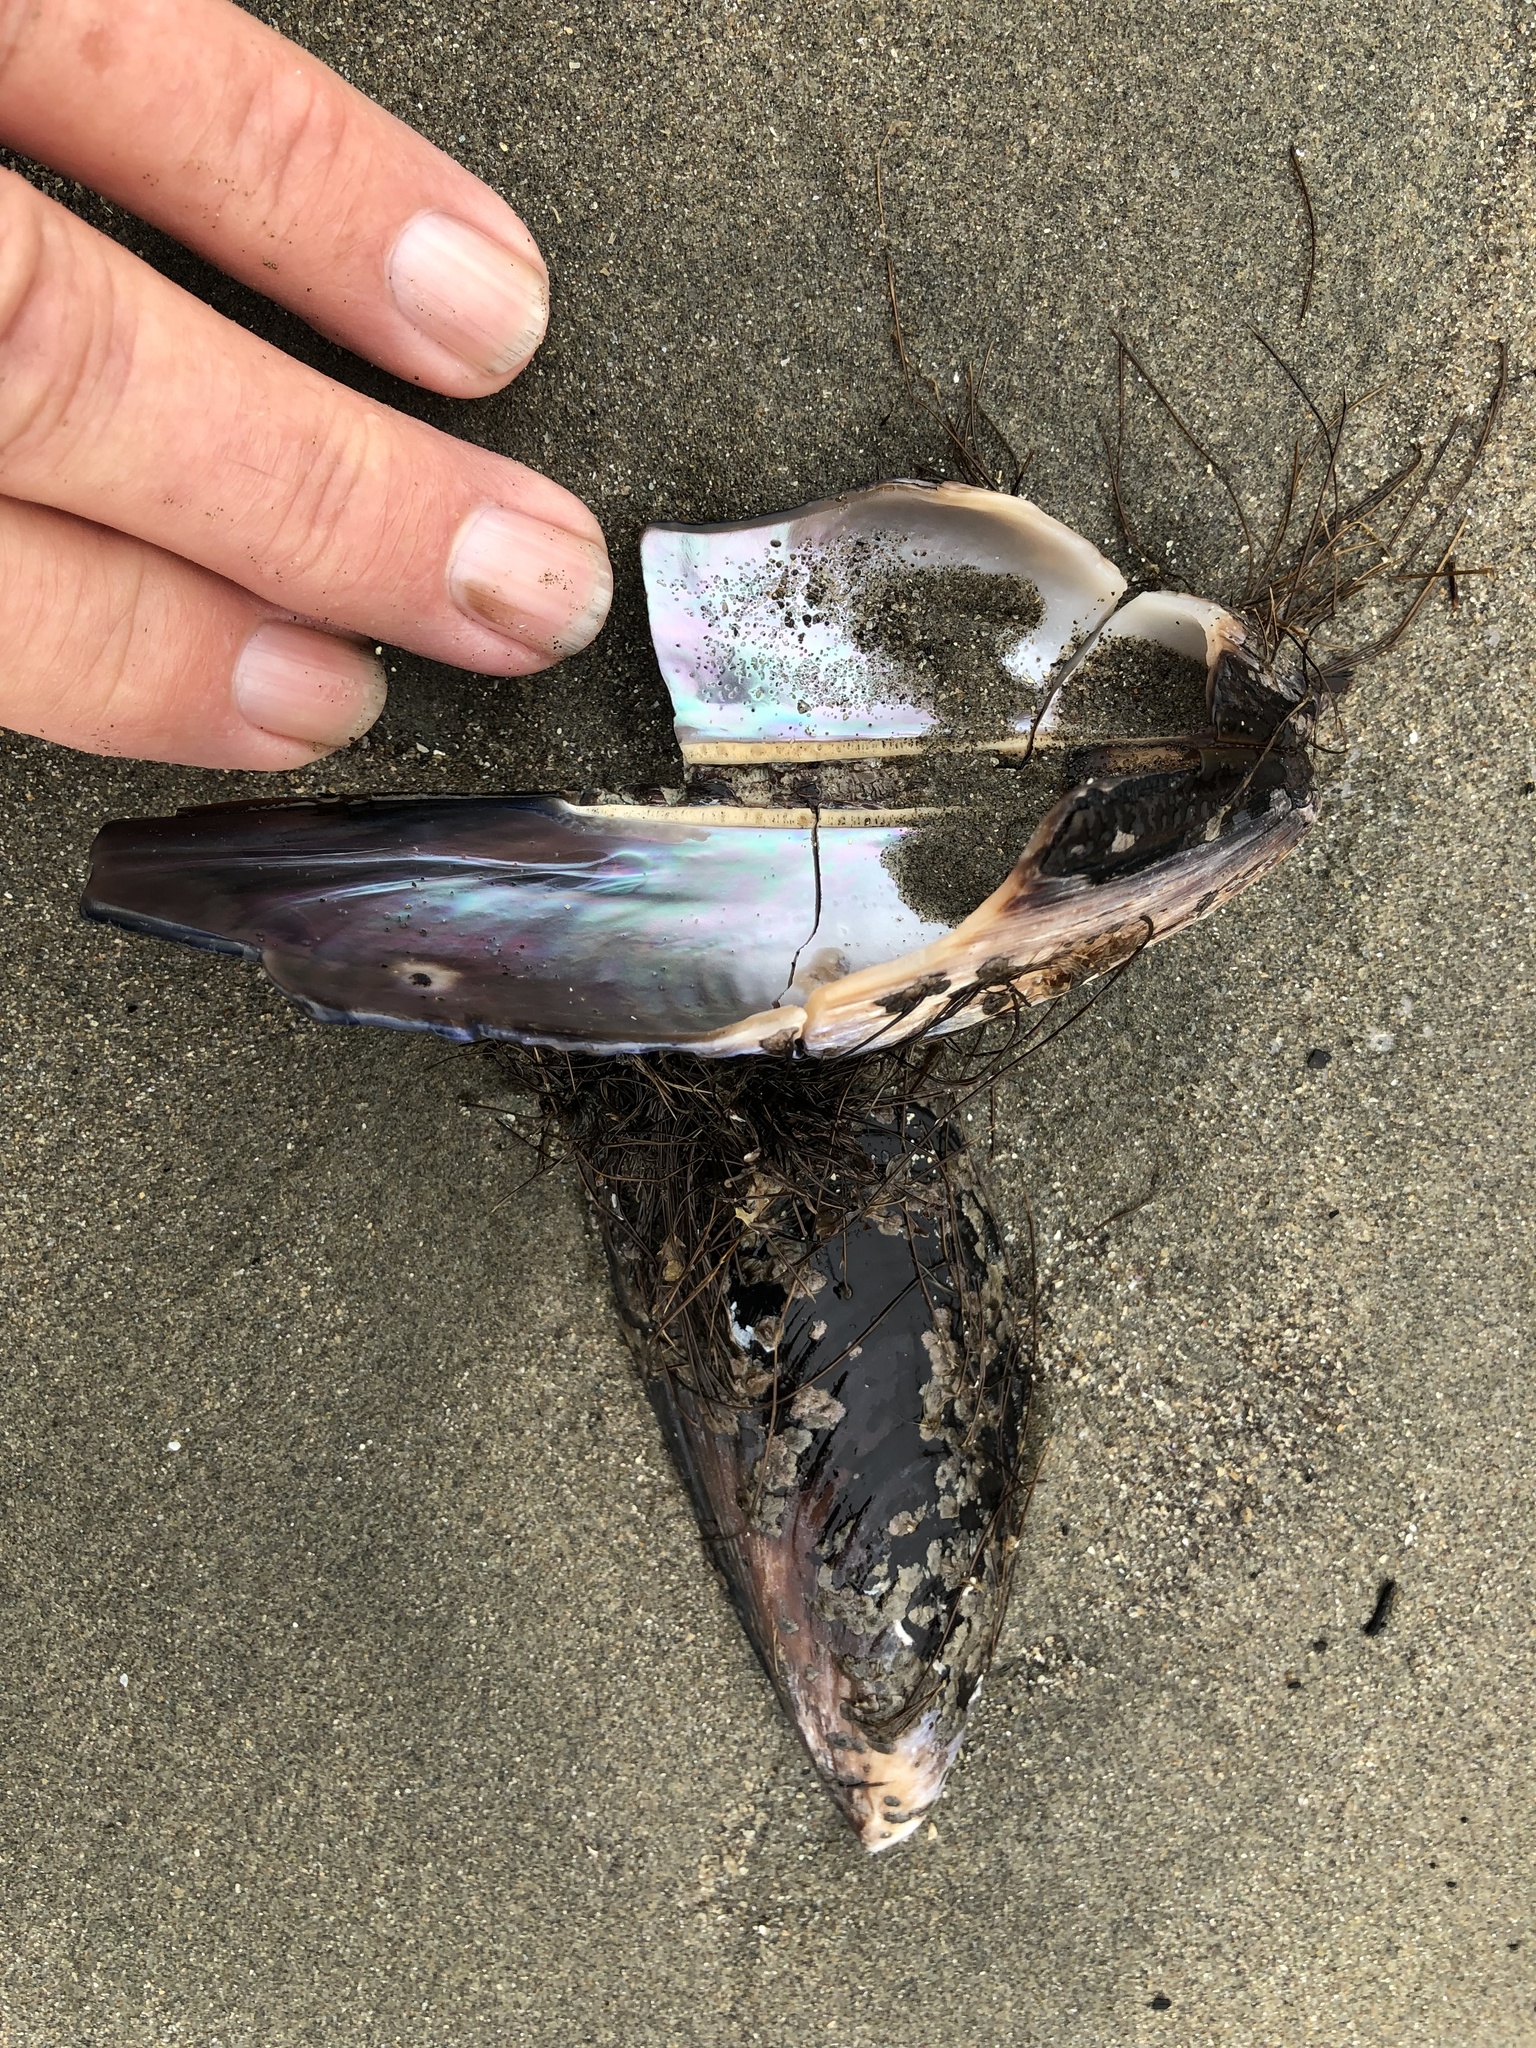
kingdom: Animalia
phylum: Mollusca
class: Bivalvia
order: Mytilida
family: Mytilidae
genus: Mytilus
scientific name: Mytilus californianus
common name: California mussel
